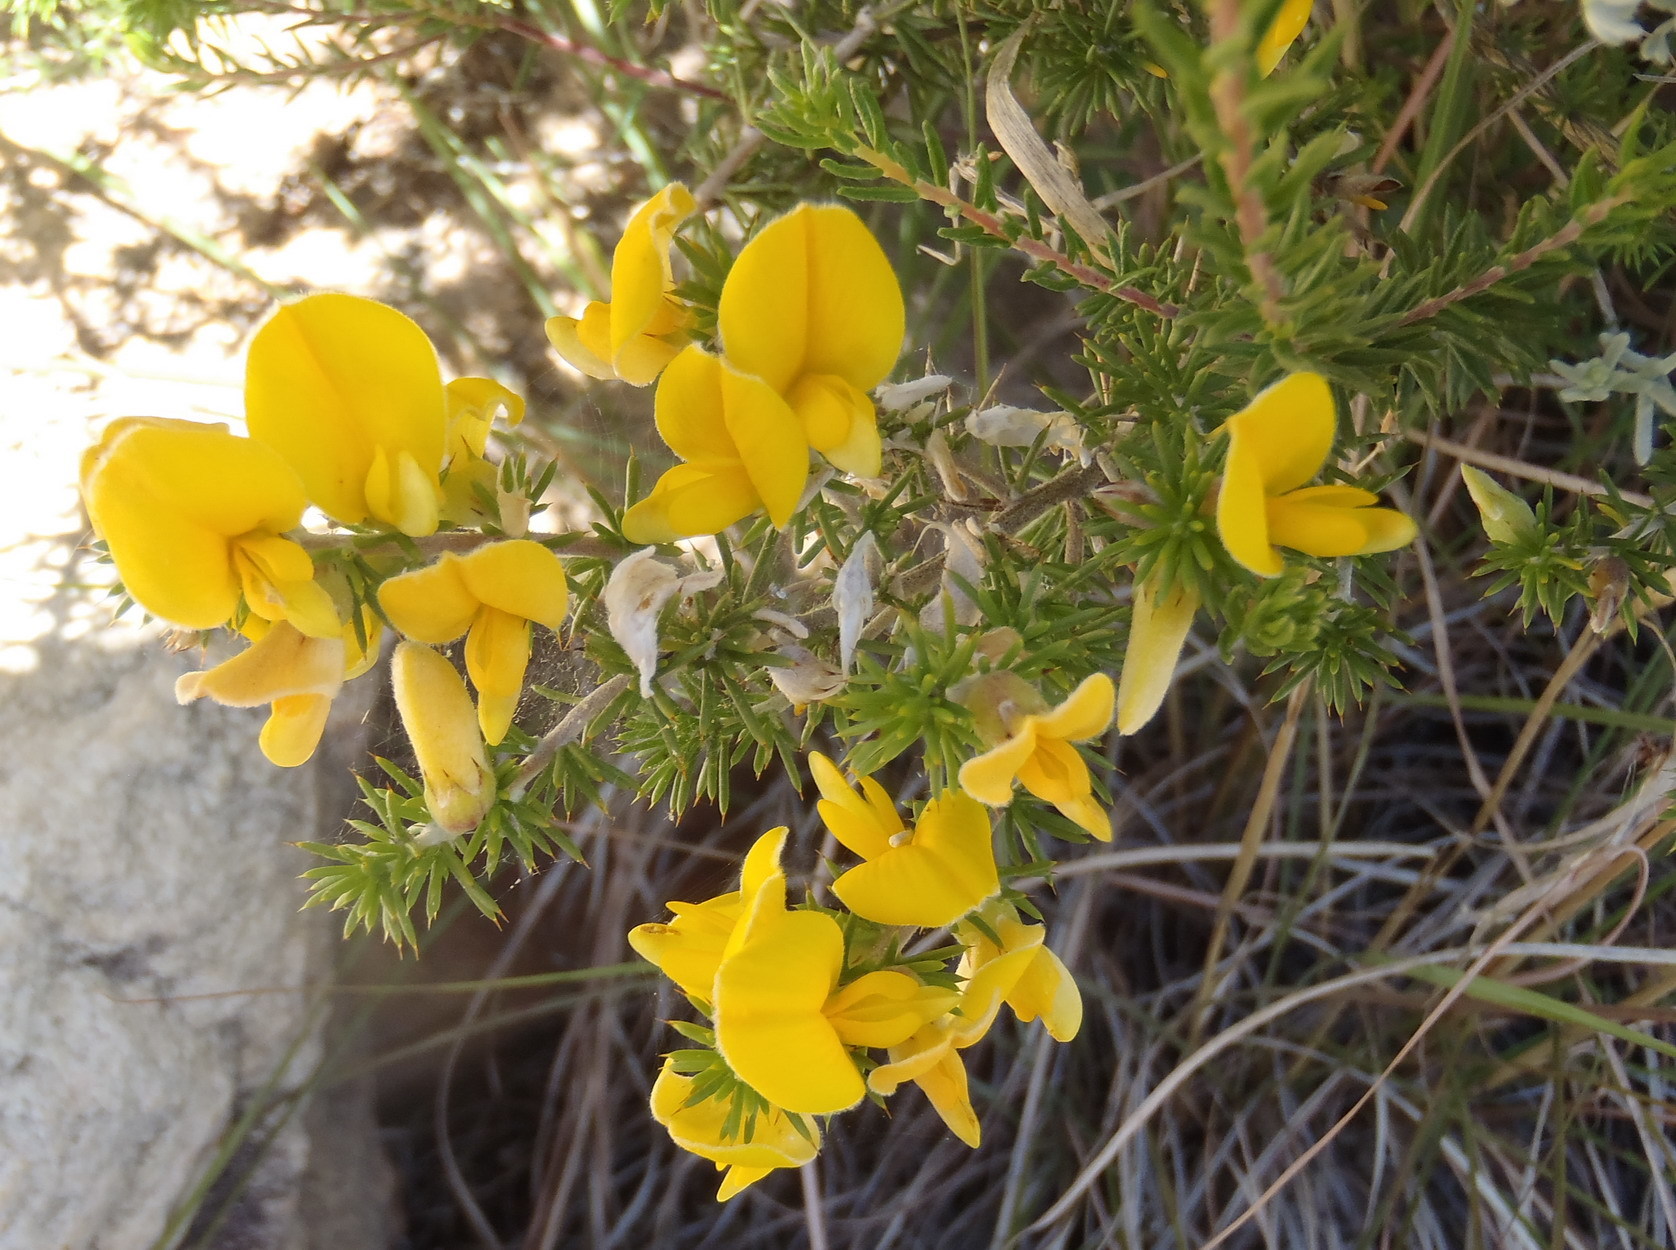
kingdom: Plantae
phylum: Tracheophyta
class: Magnoliopsida
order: Fabales
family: Fabaceae
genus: Aspalathus
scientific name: Aspalathus hirta
